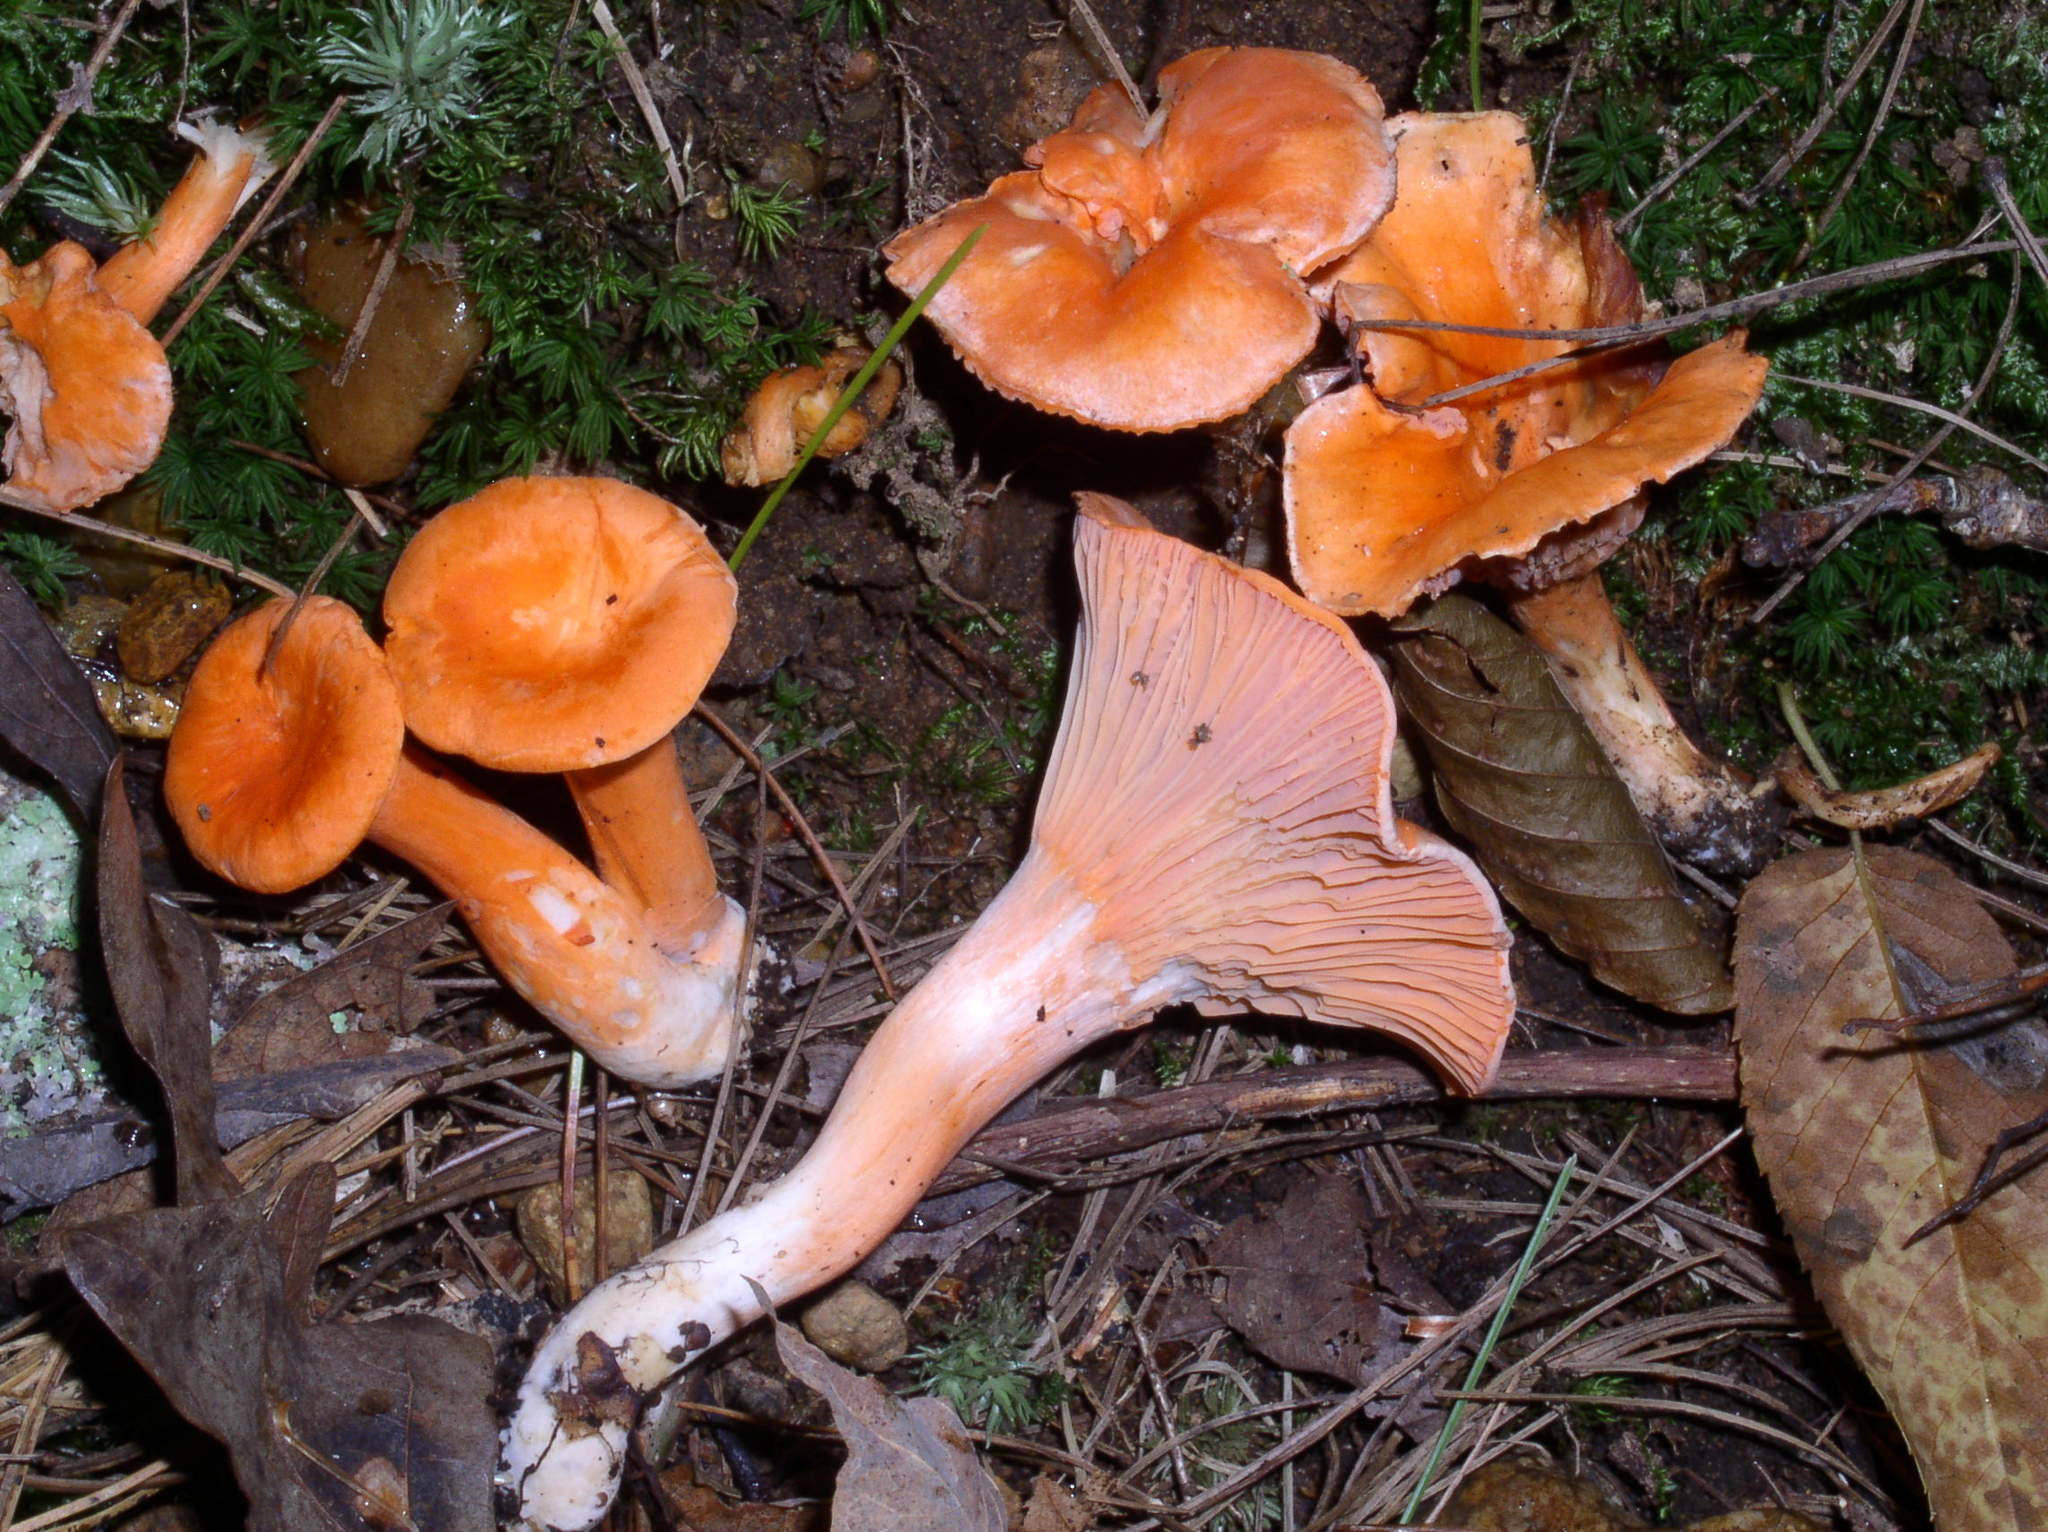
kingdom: Fungi
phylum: Basidiomycota
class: Agaricomycetes
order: Cantharellales
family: Hydnaceae
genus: Cantharellus
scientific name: Cantharellus cinnabarinus
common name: Cinnabar chanterelle
